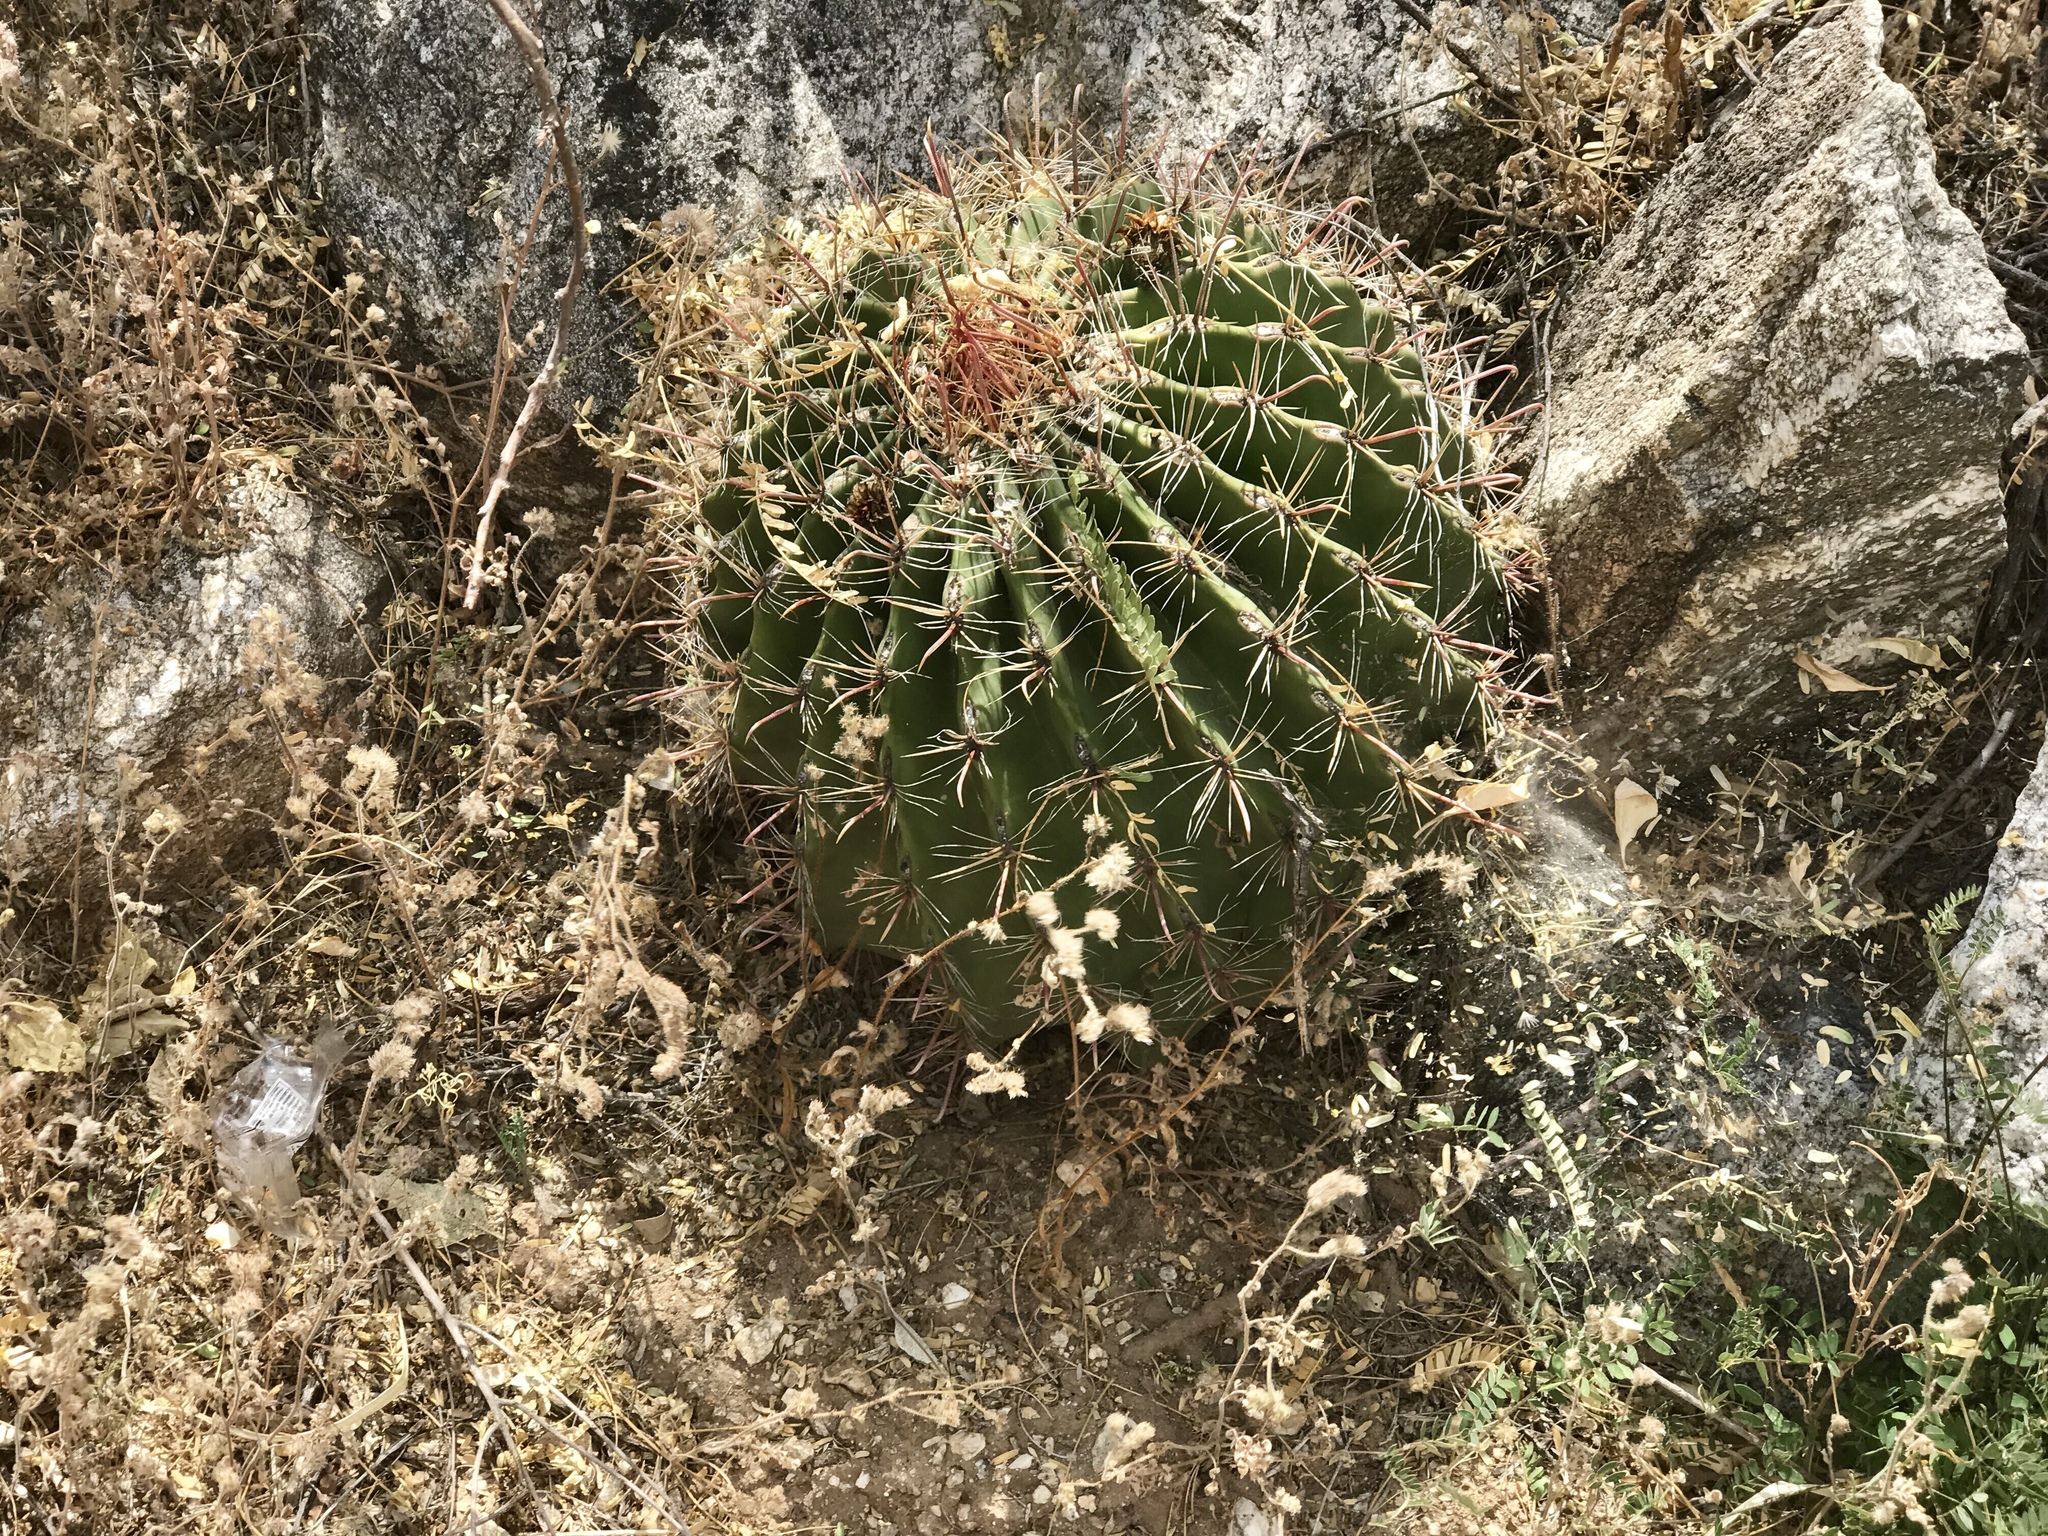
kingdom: Plantae
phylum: Tracheophyta
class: Magnoliopsida
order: Caryophyllales
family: Cactaceae
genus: Ferocactus
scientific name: Ferocactus wislizeni
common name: Candy barrel cactus
